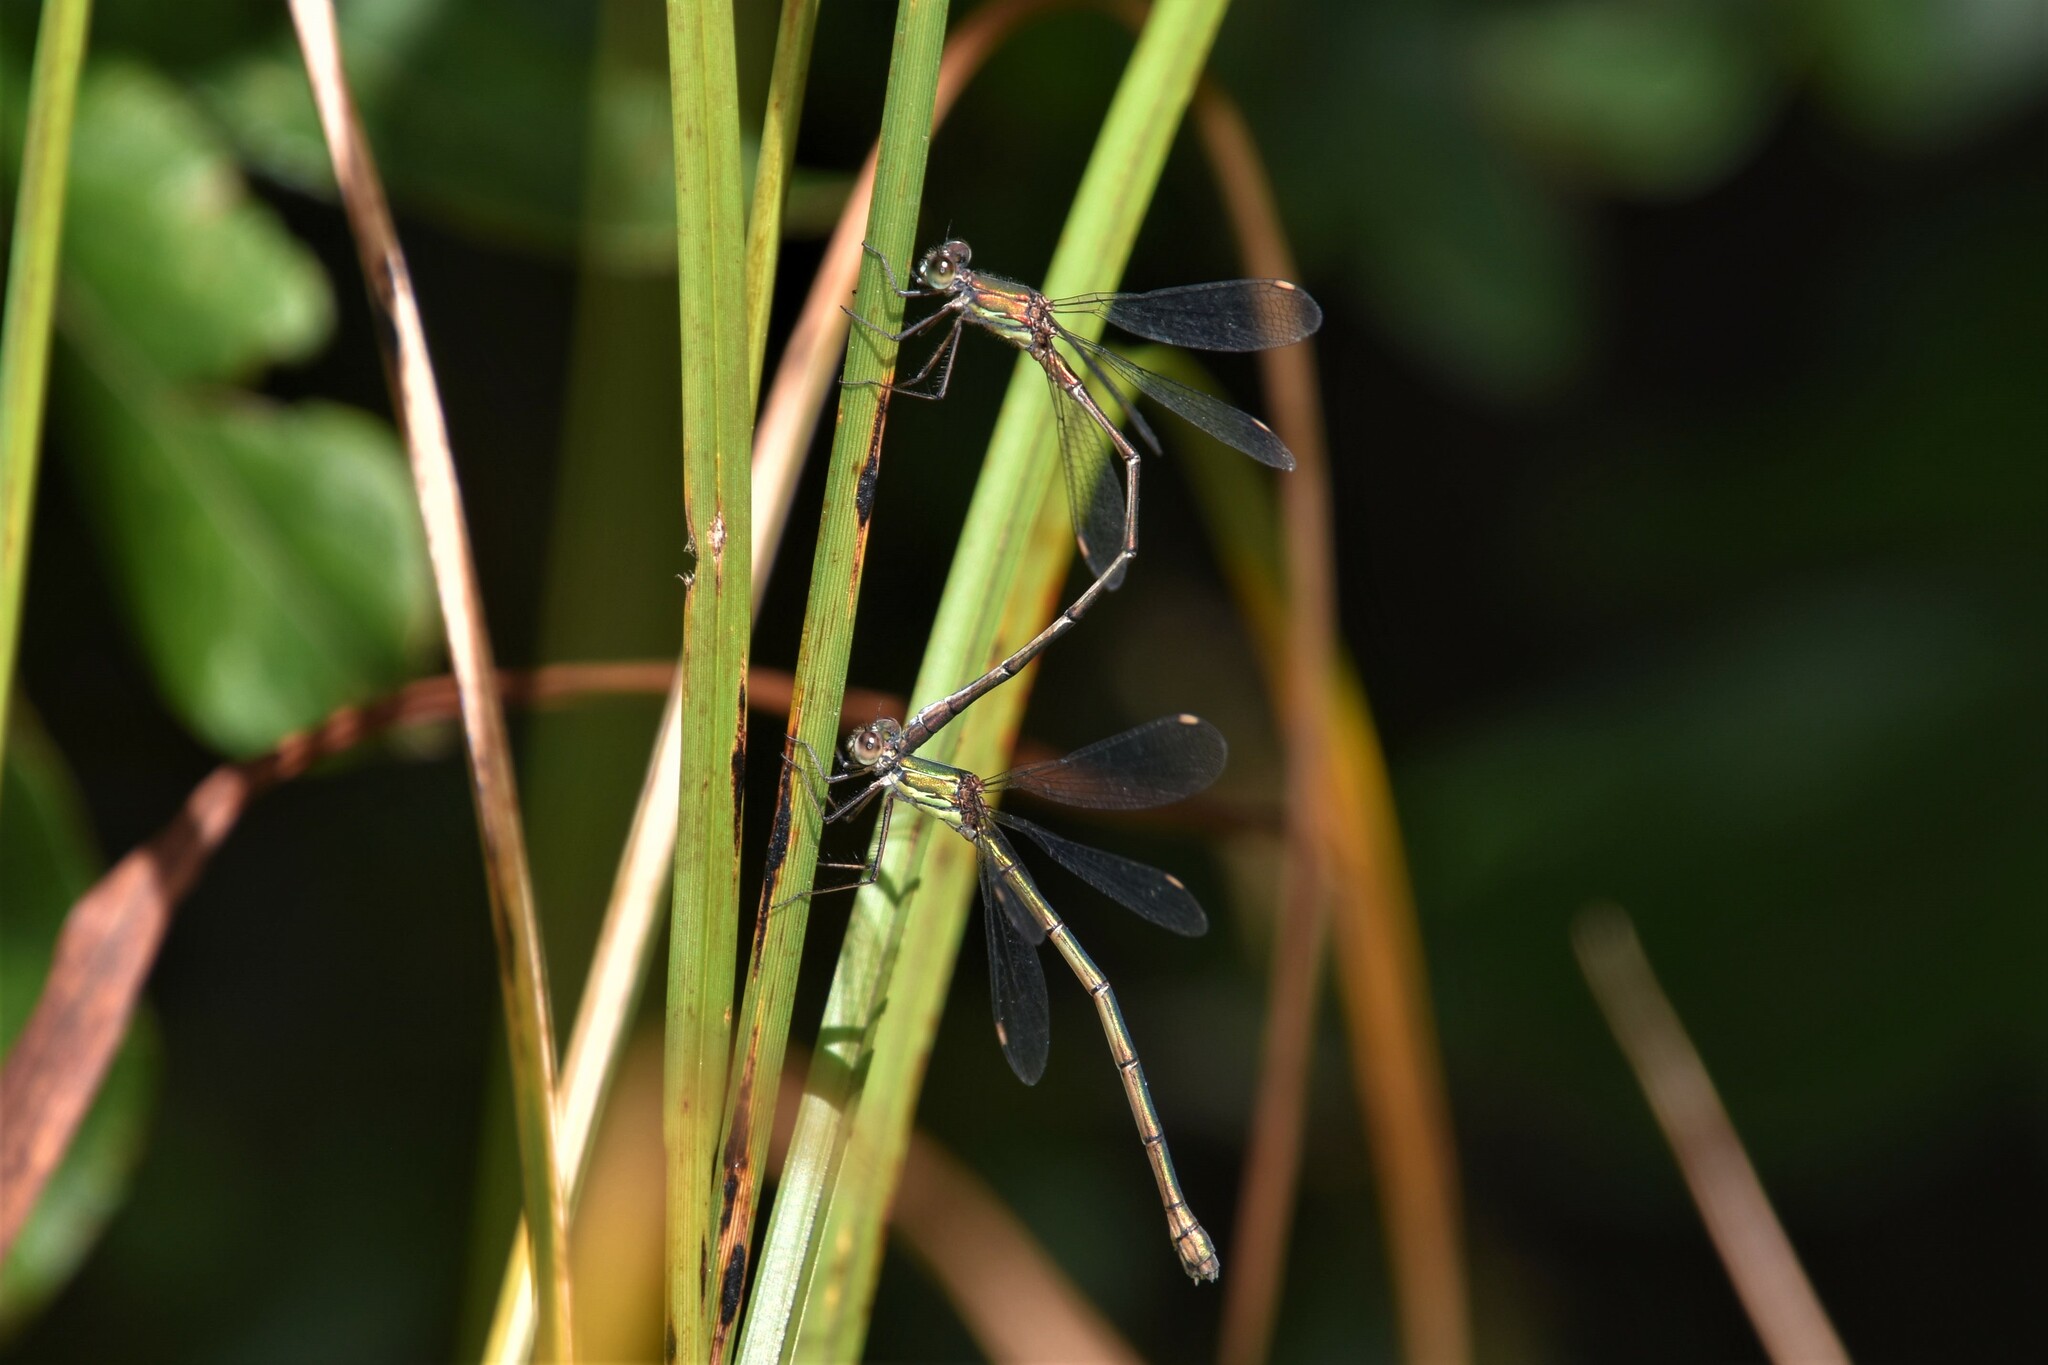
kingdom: Animalia
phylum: Arthropoda
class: Insecta
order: Odonata
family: Lestidae
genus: Chalcolestes
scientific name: Chalcolestes viridis
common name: Green emerald damselfly
